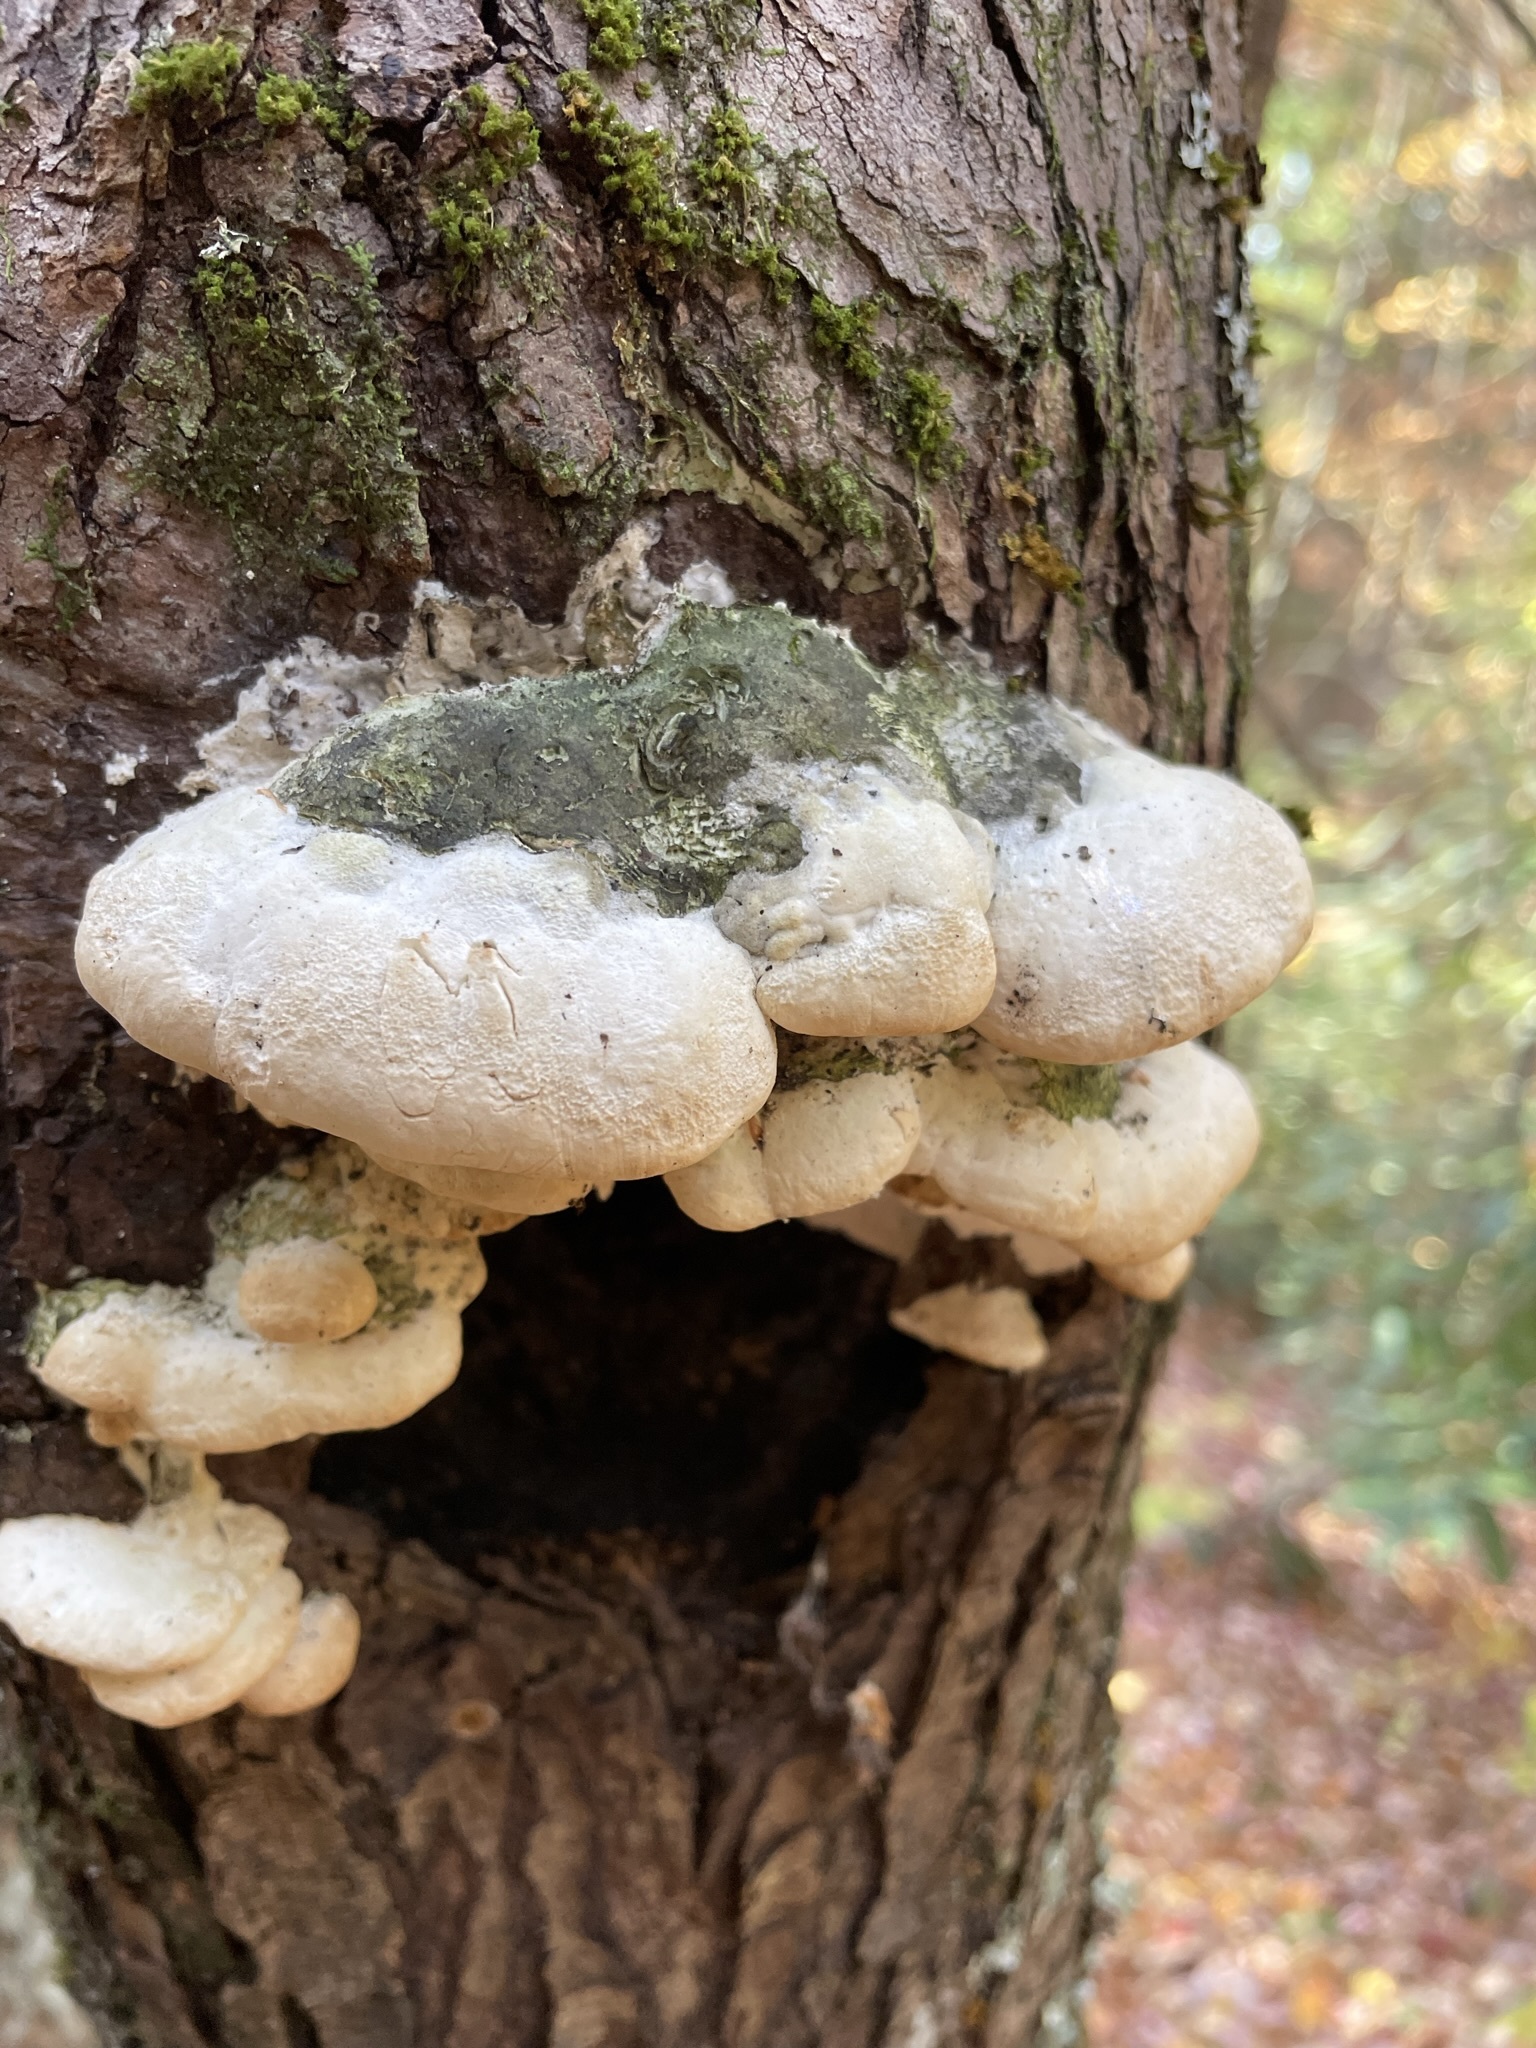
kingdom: Fungi
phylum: Basidiomycota
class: Agaricomycetes
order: Hymenochaetales
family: Oxyporaceae
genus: Oxyporus
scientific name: Oxyporus populinus
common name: Poplar bracket
